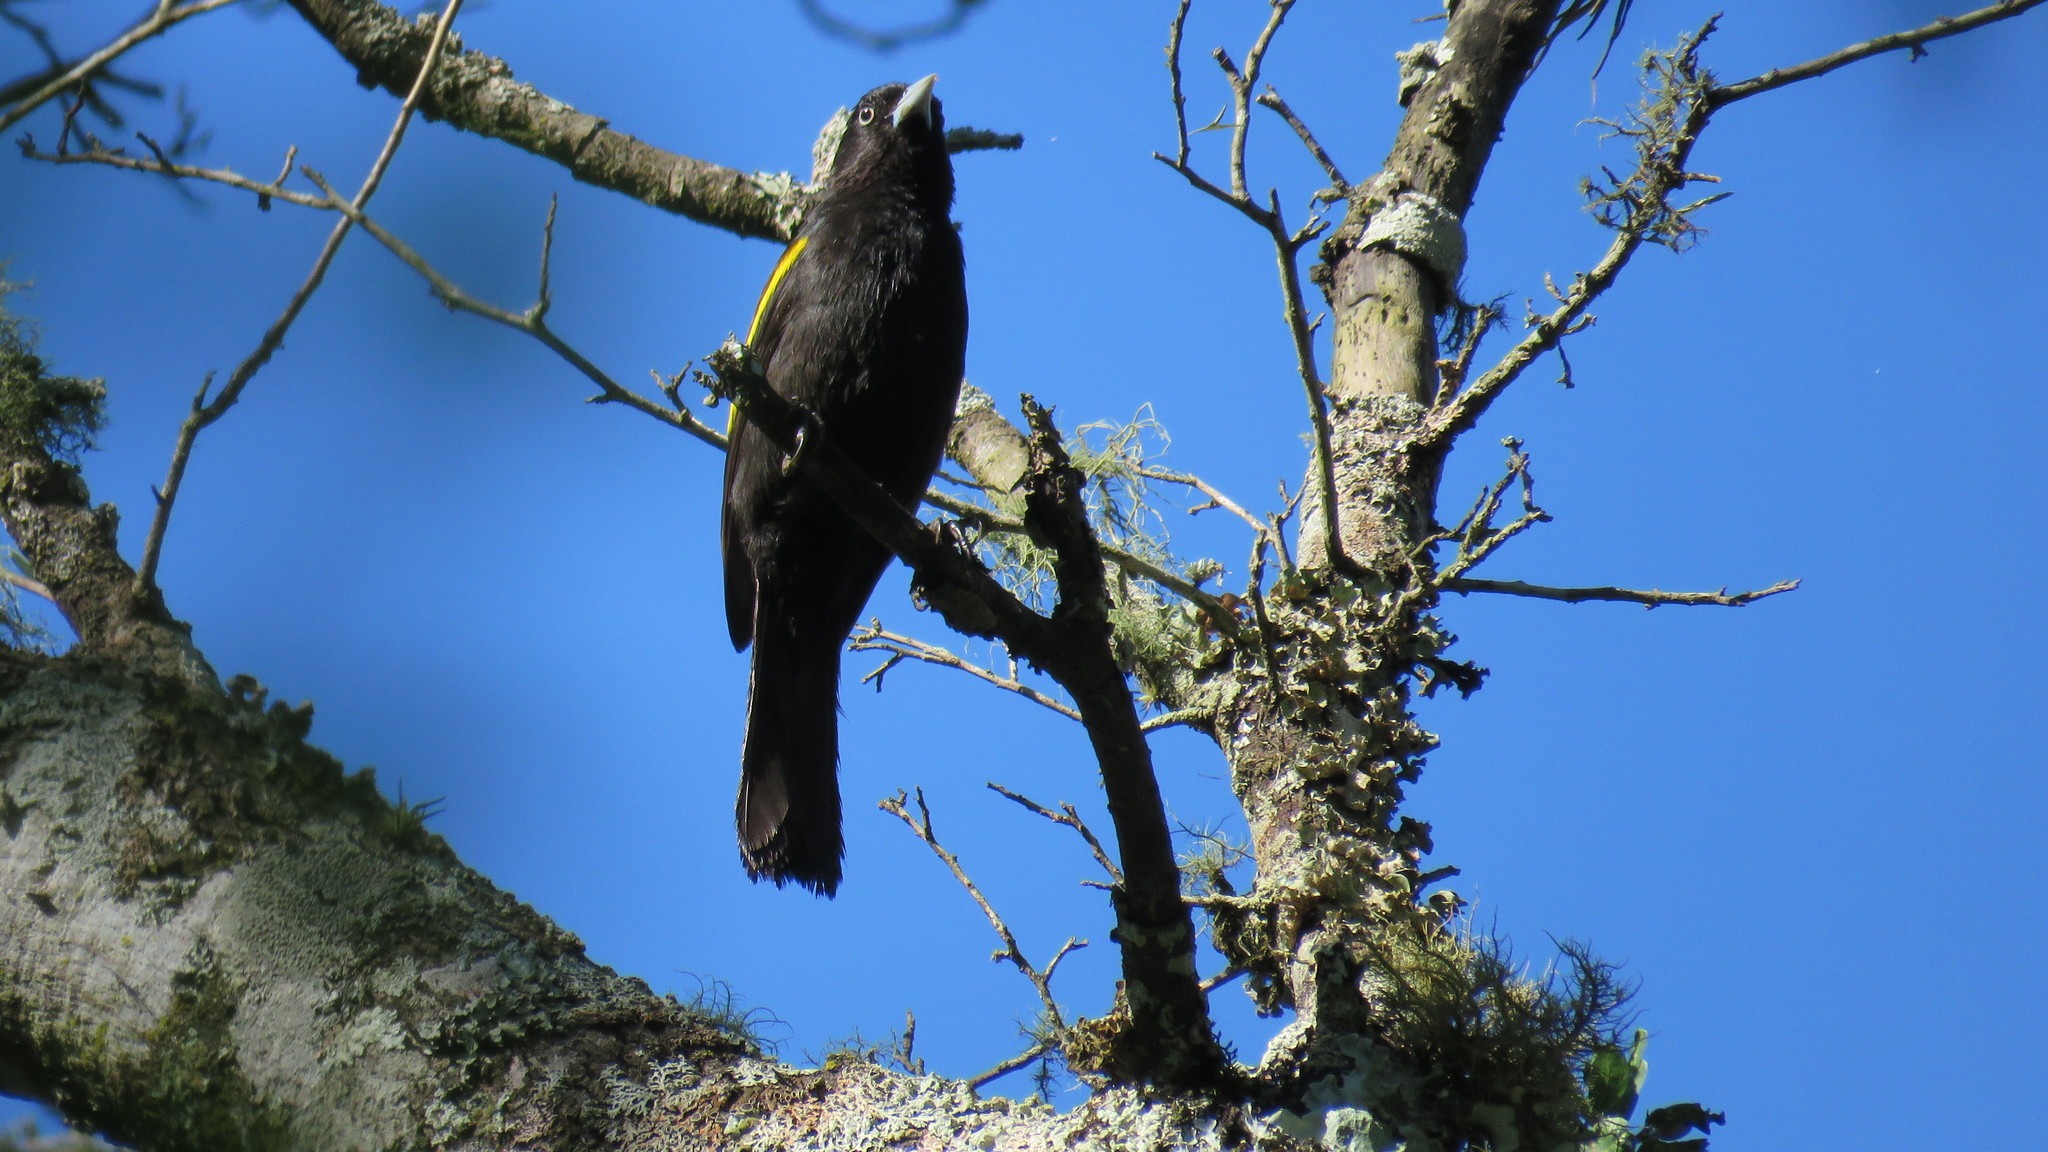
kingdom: Animalia
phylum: Chordata
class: Aves
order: Passeriformes
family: Icteridae
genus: Cacicus
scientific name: Cacicus chrysopterus
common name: Golden-winged cacique
